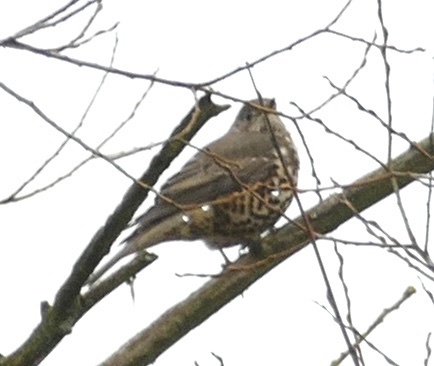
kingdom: Animalia
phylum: Chordata
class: Aves
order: Passeriformes
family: Turdidae
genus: Turdus
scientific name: Turdus viscivorus
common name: Mistle thrush
